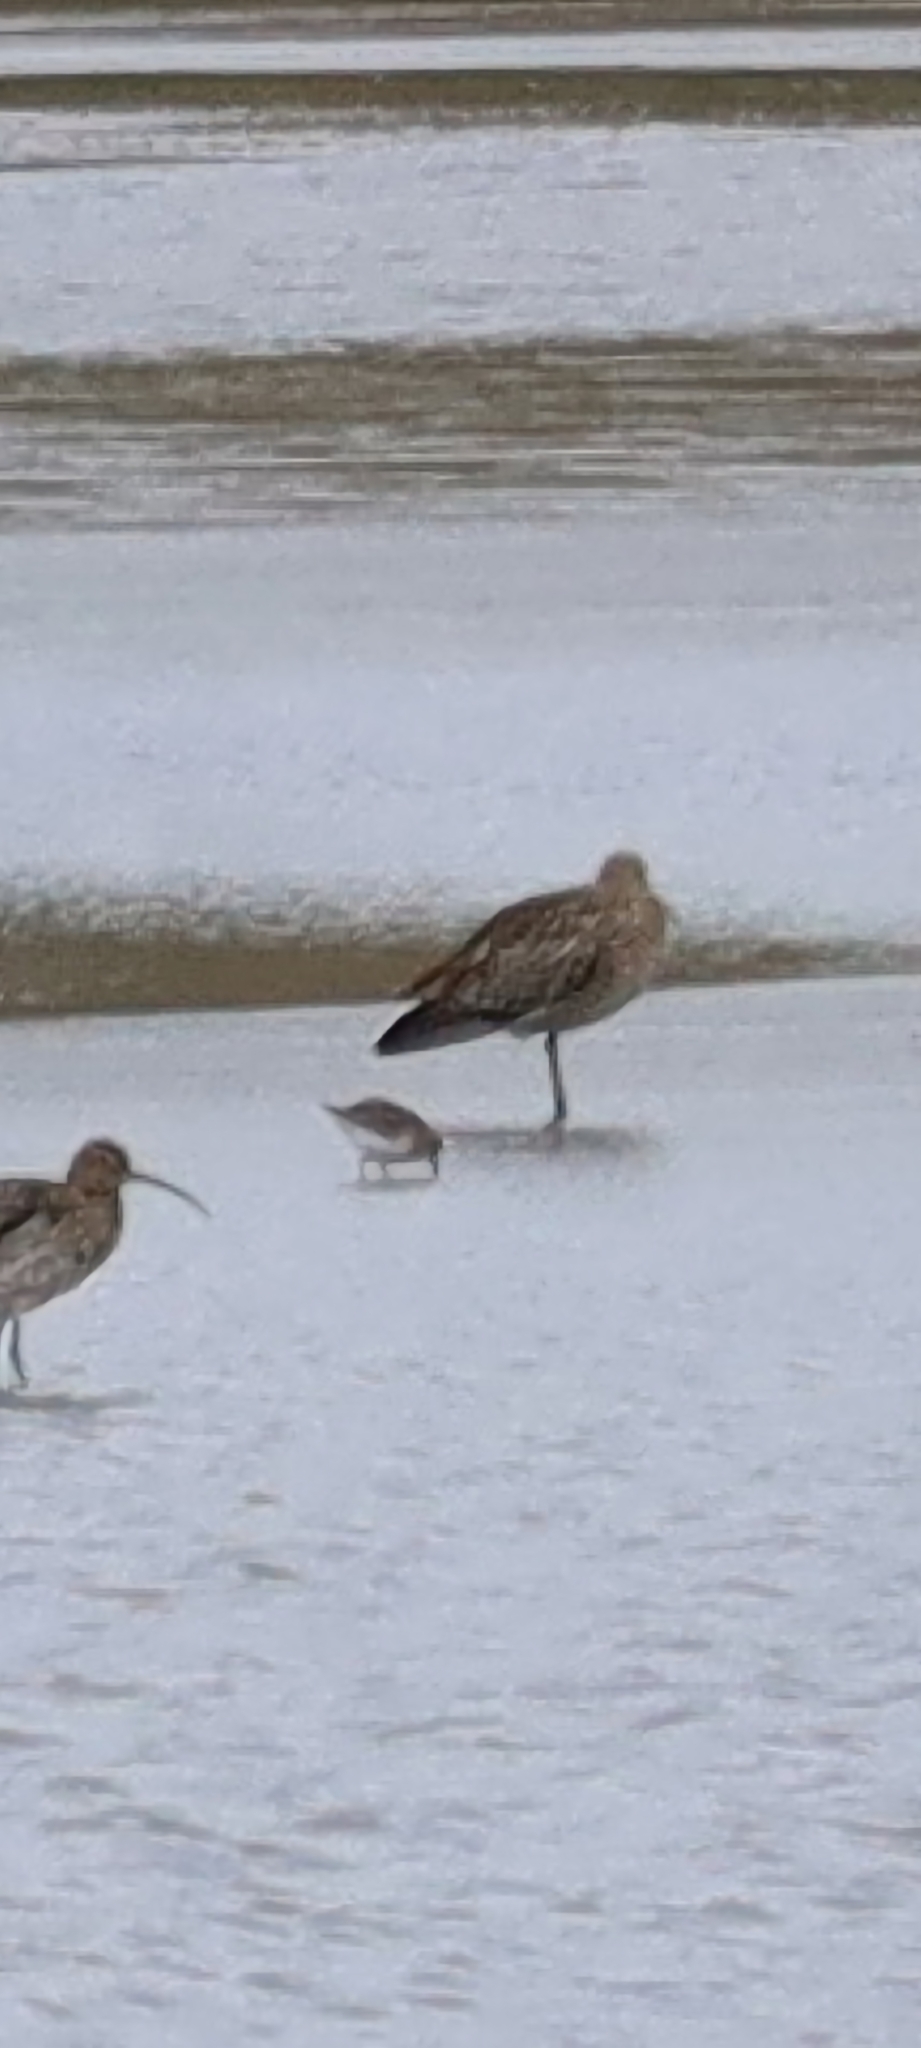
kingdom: Animalia
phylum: Chordata
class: Aves
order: Charadriiformes
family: Scolopacidae
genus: Calidris
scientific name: Calidris alpina
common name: Dunlin
